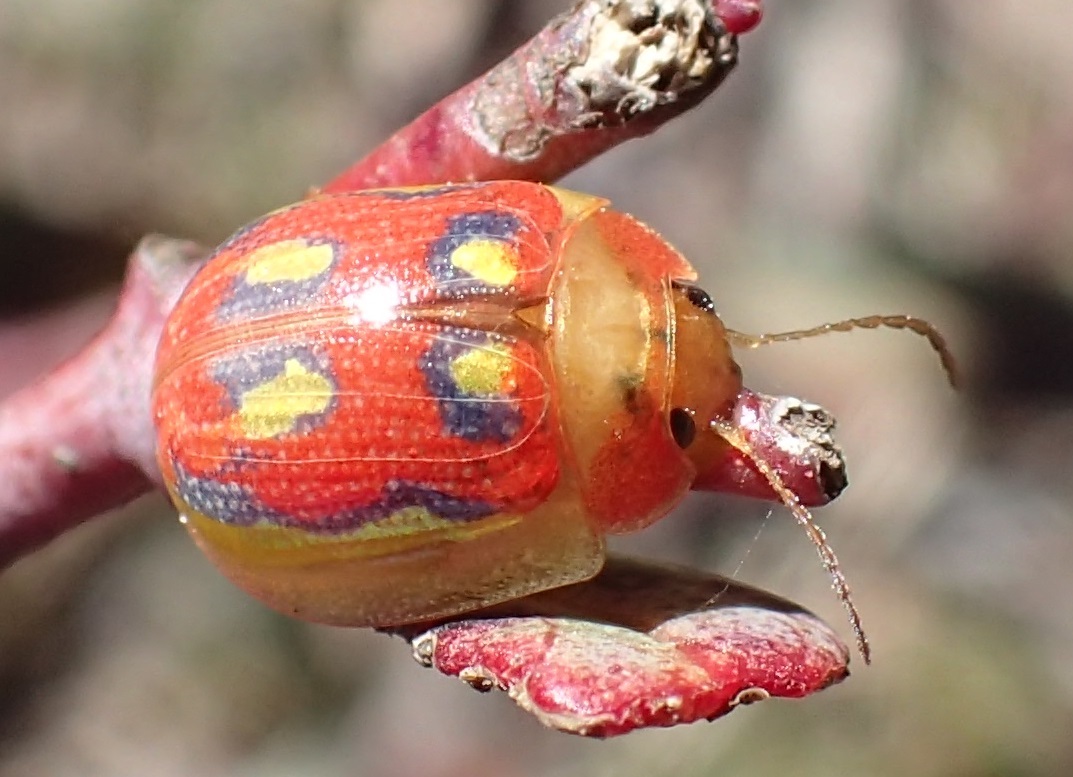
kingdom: Animalia
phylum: Arthropoda
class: Insecta
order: Coleoptera
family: Chrysomelidae
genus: Paropsisterna
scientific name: Paropsisterna
